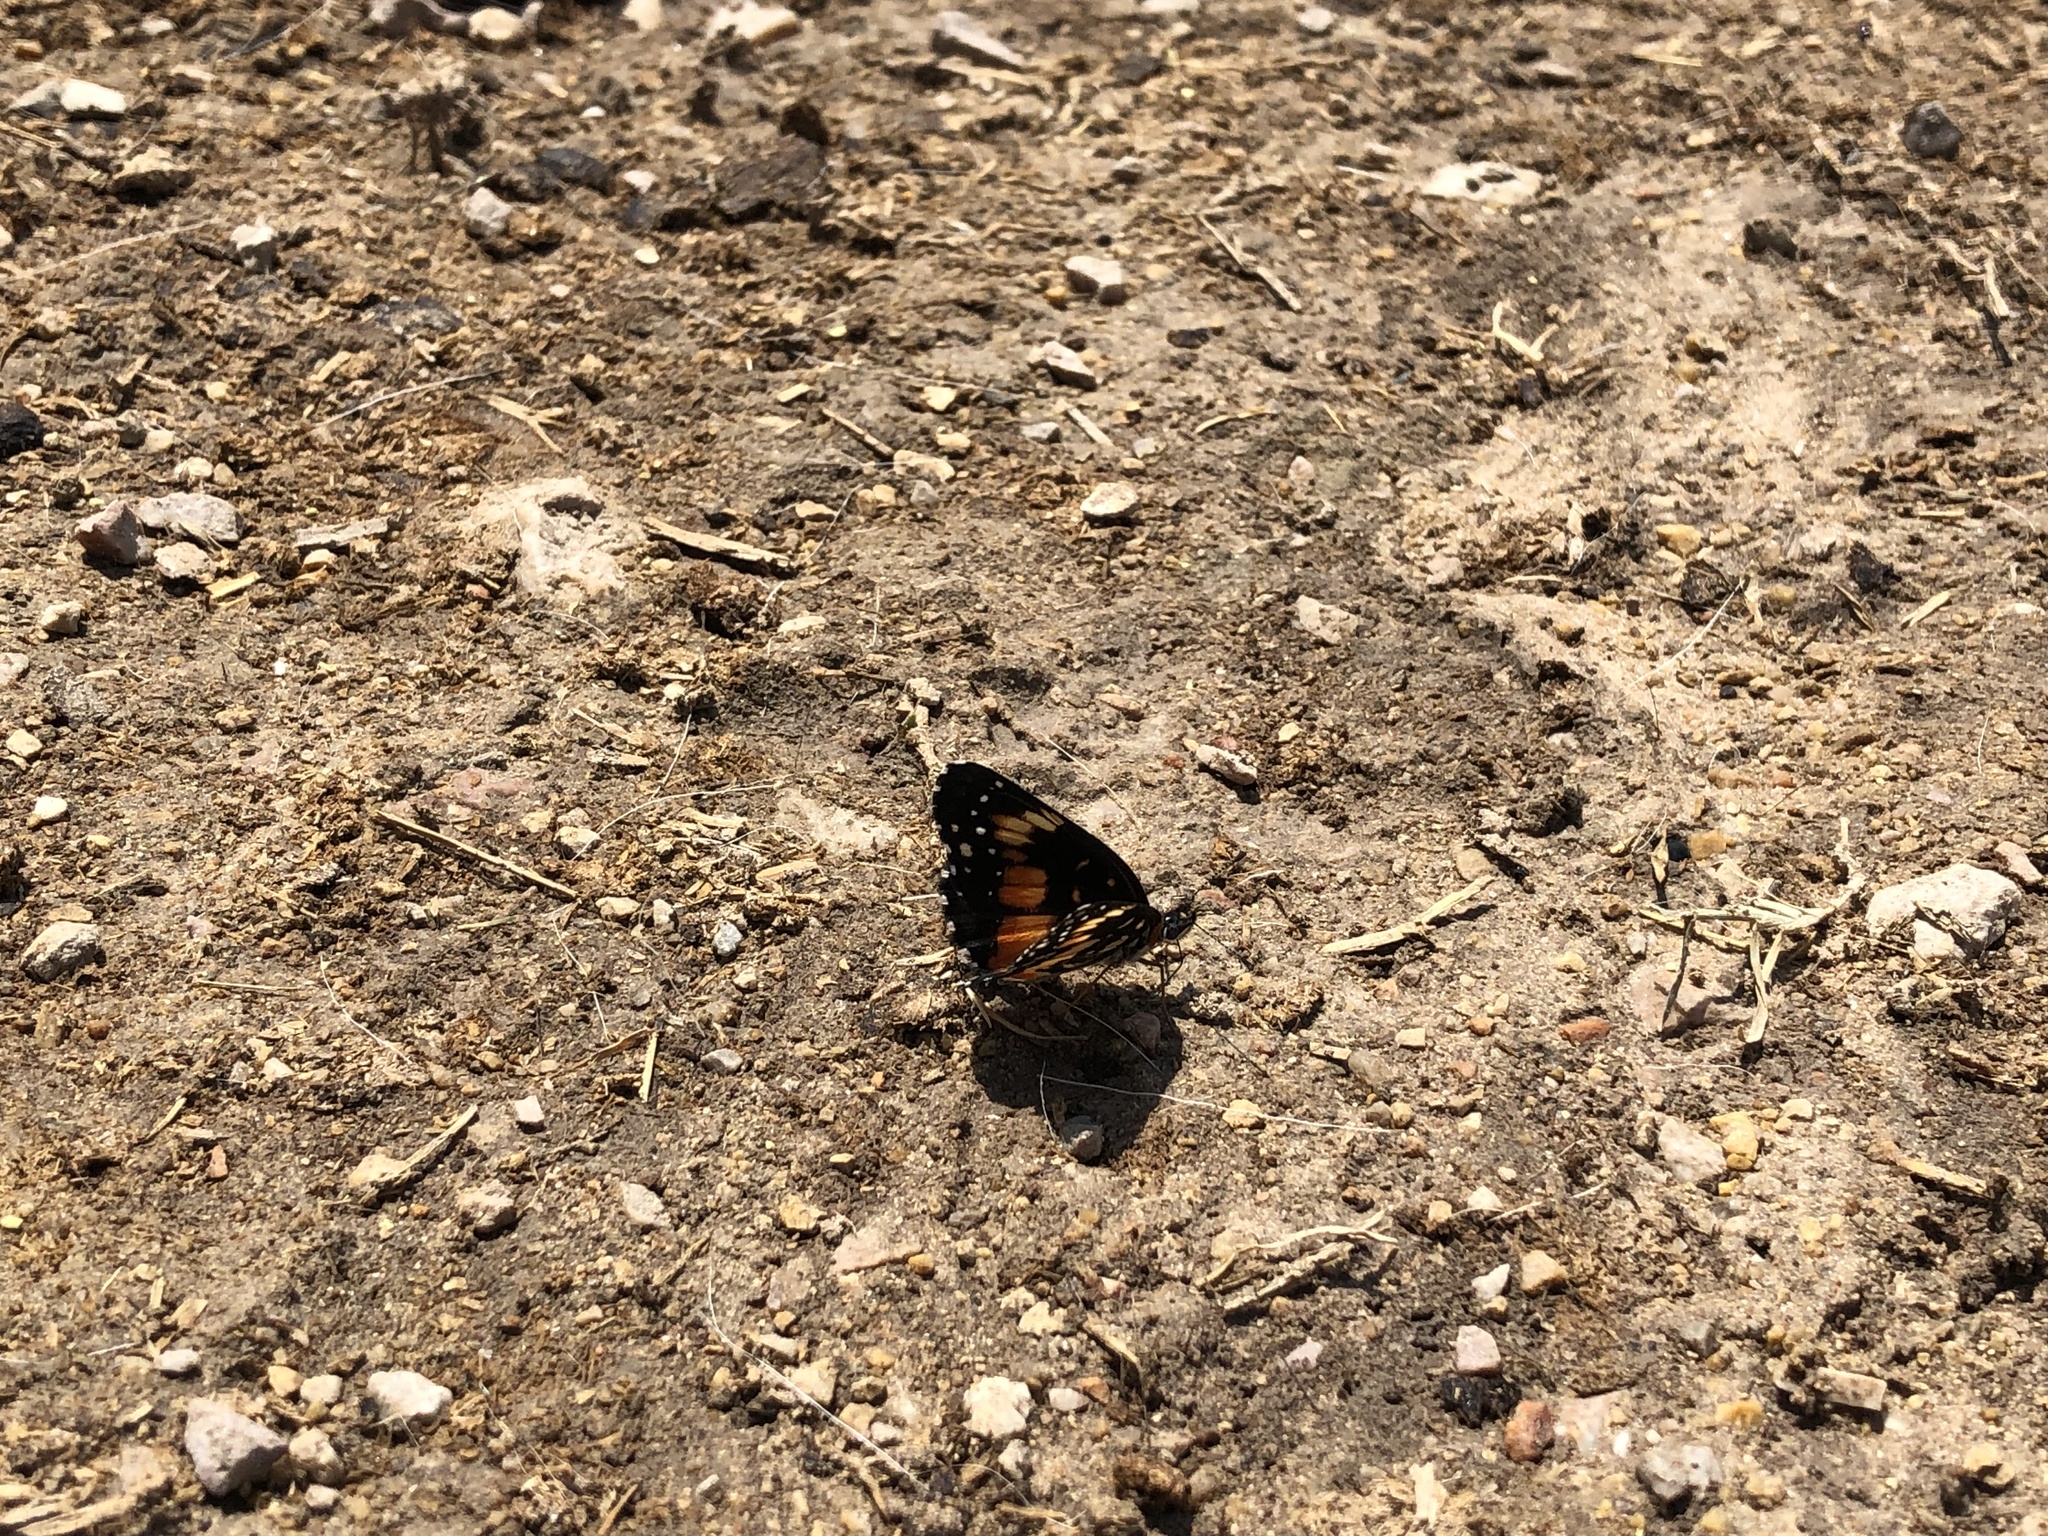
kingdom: Animalia
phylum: Arthropoda
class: Insecta
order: Lepidoptera
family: Nymphalidae
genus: Chlosyne
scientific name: Chlosyne lacinia
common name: Bordered patch
